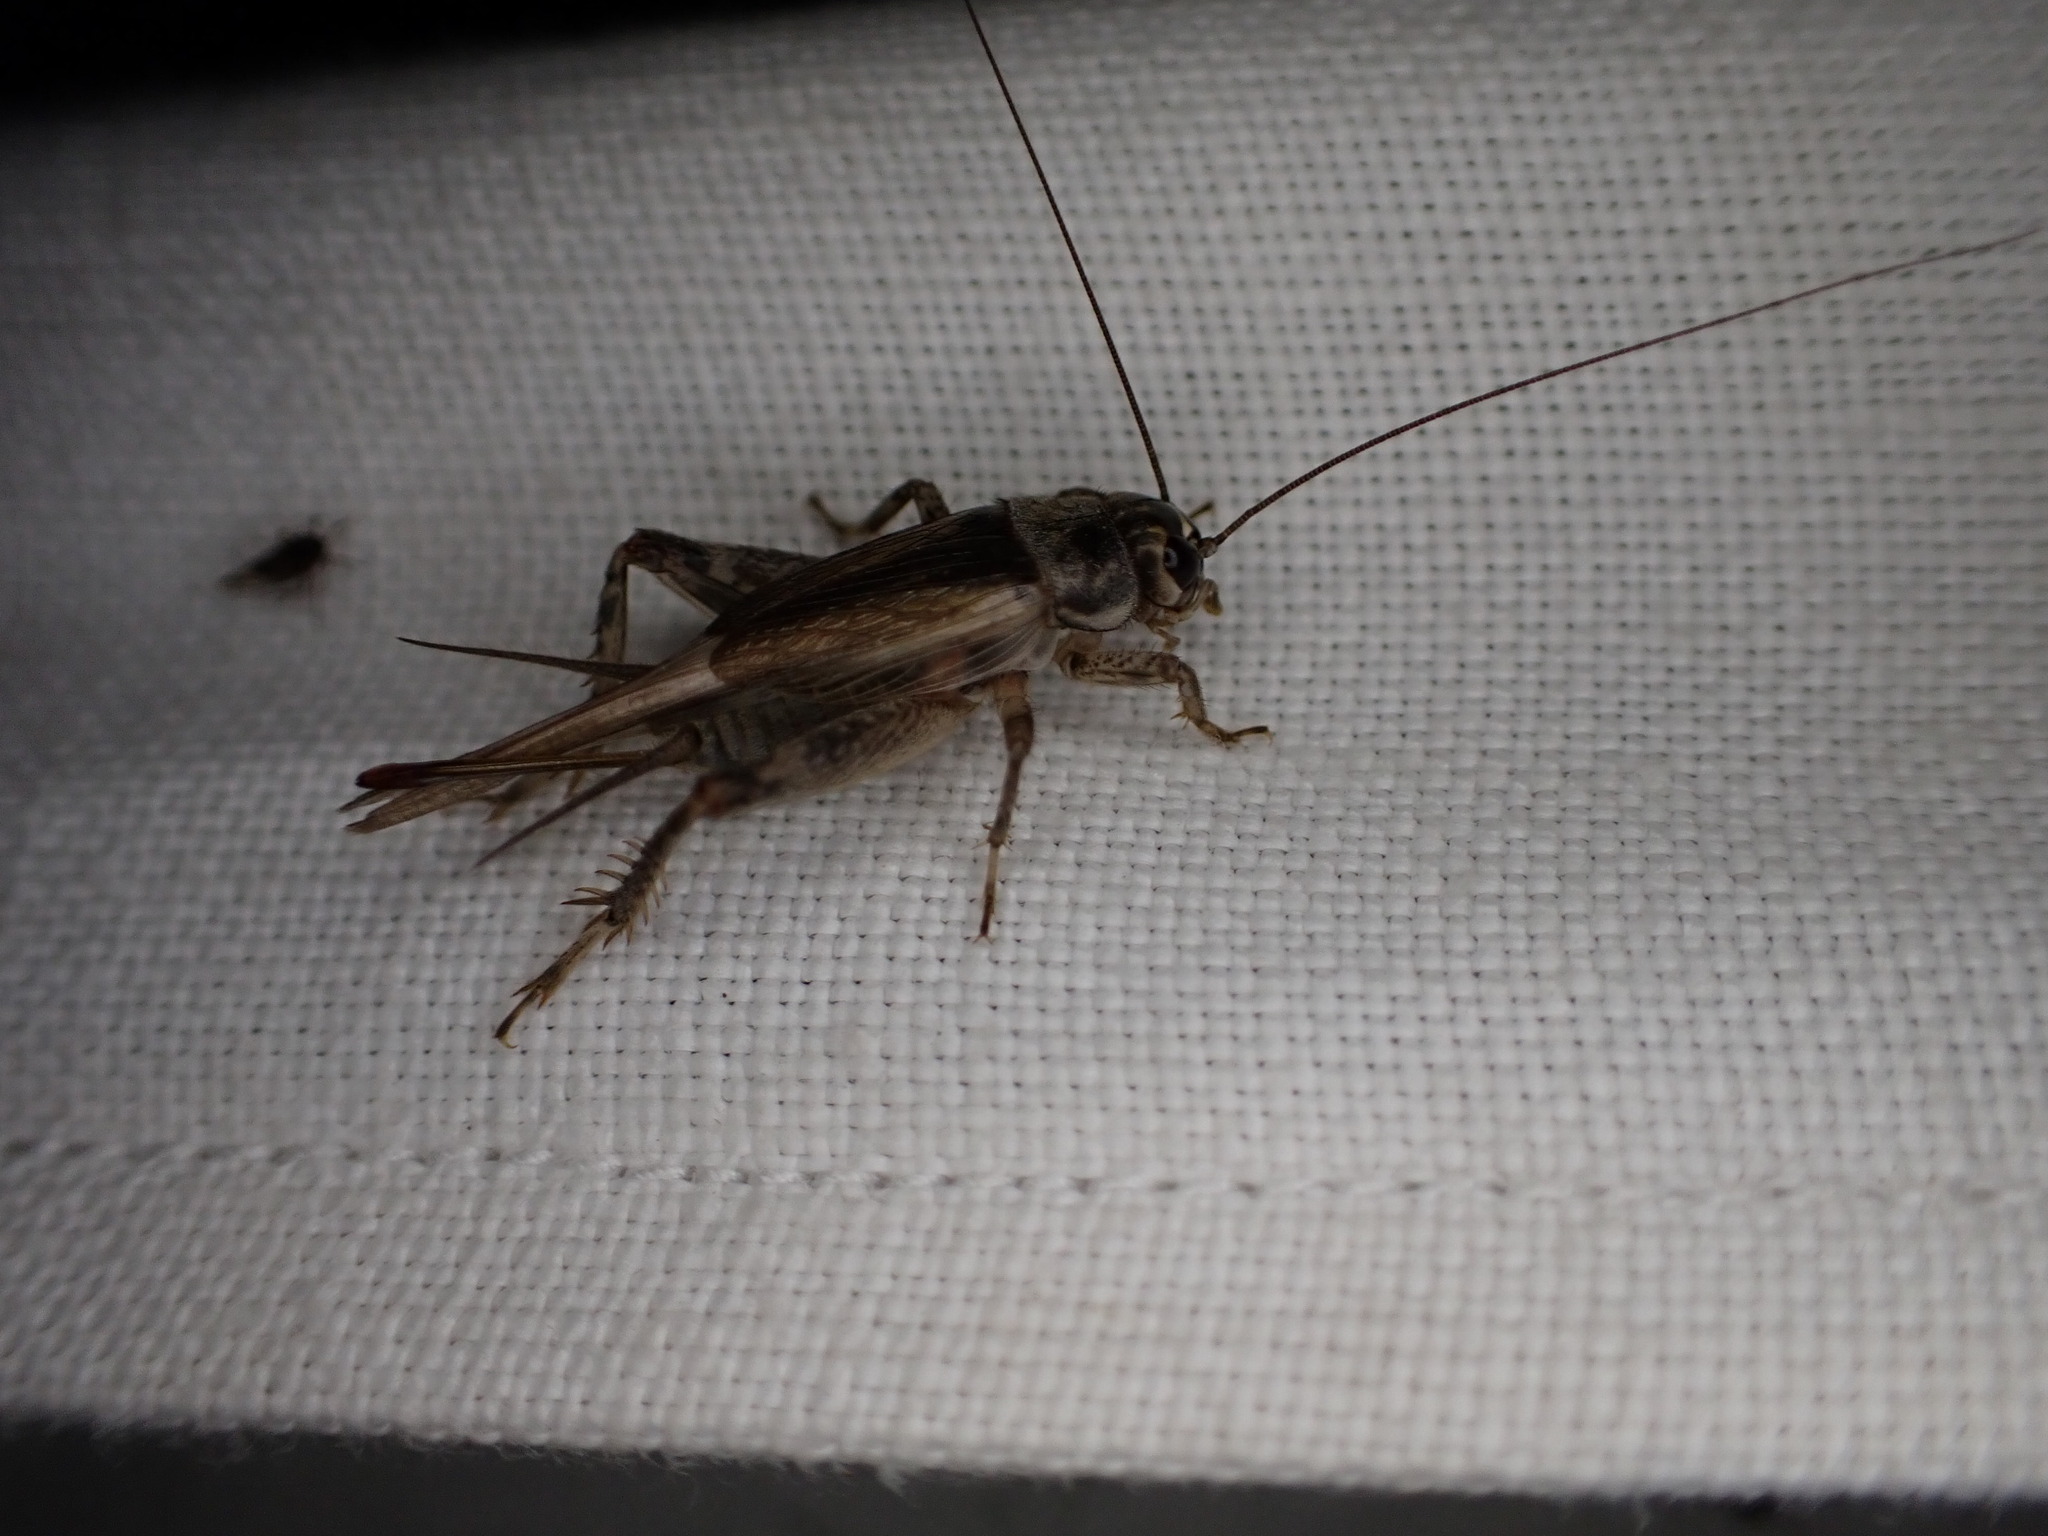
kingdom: Animalia
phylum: Arthropoda
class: Insecta
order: Orthoptera
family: Gryllidae
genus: Eumodicogryllus
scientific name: Eumodicogryllus bordigalensis
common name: Bordeaux cricket
